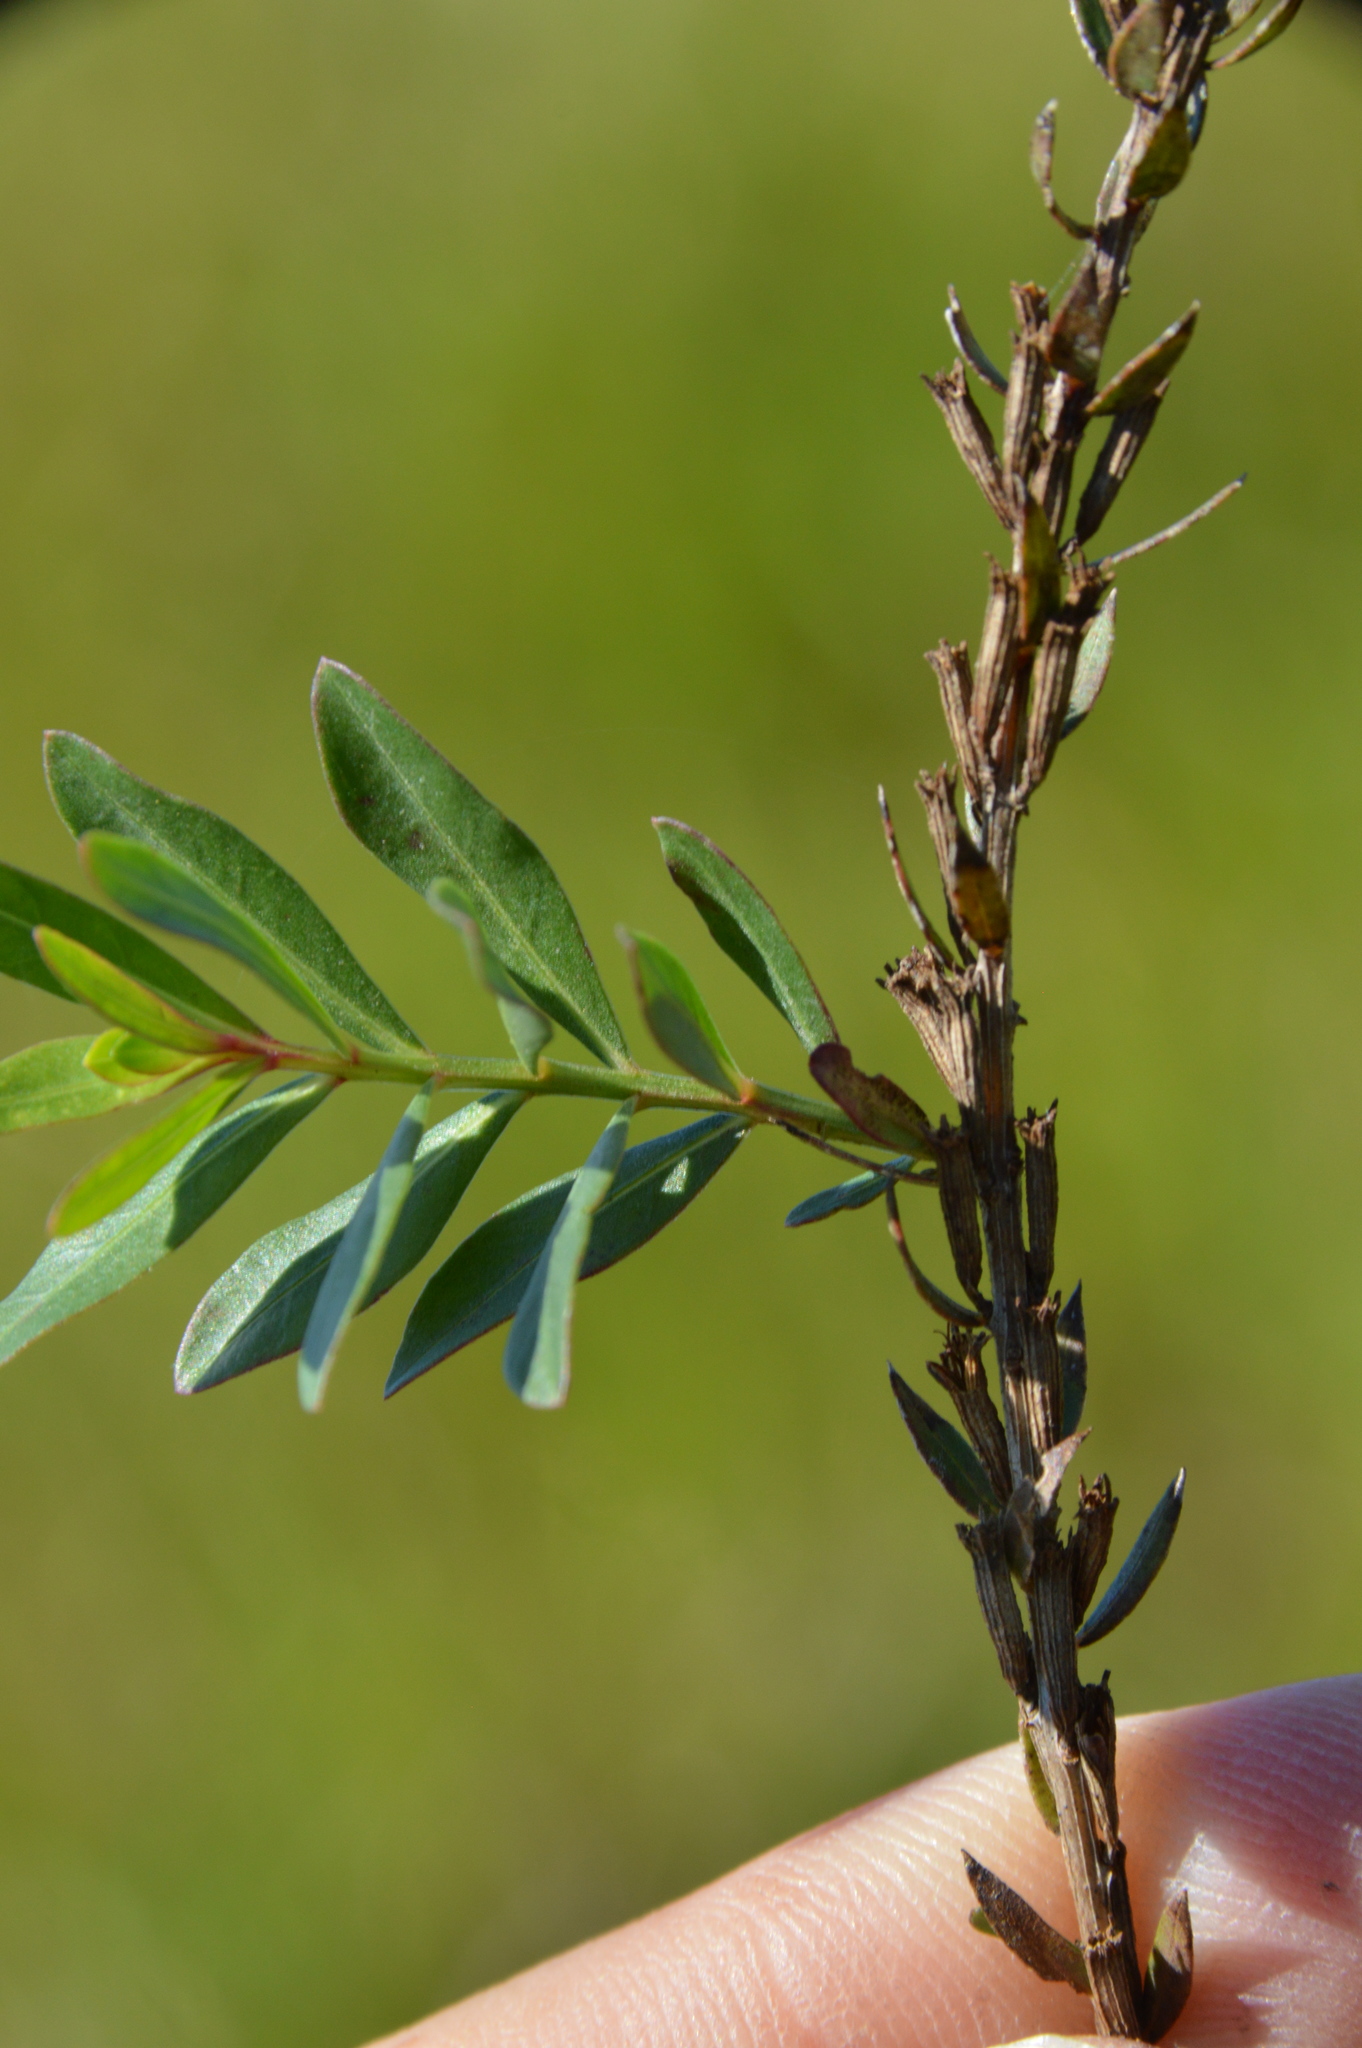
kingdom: Plantae
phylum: Tracheophyta
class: Magnoliopsida
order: Myrtales
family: Lythraceae
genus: Lythrum
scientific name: Lythrum alatum
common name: Winged loosestrife
